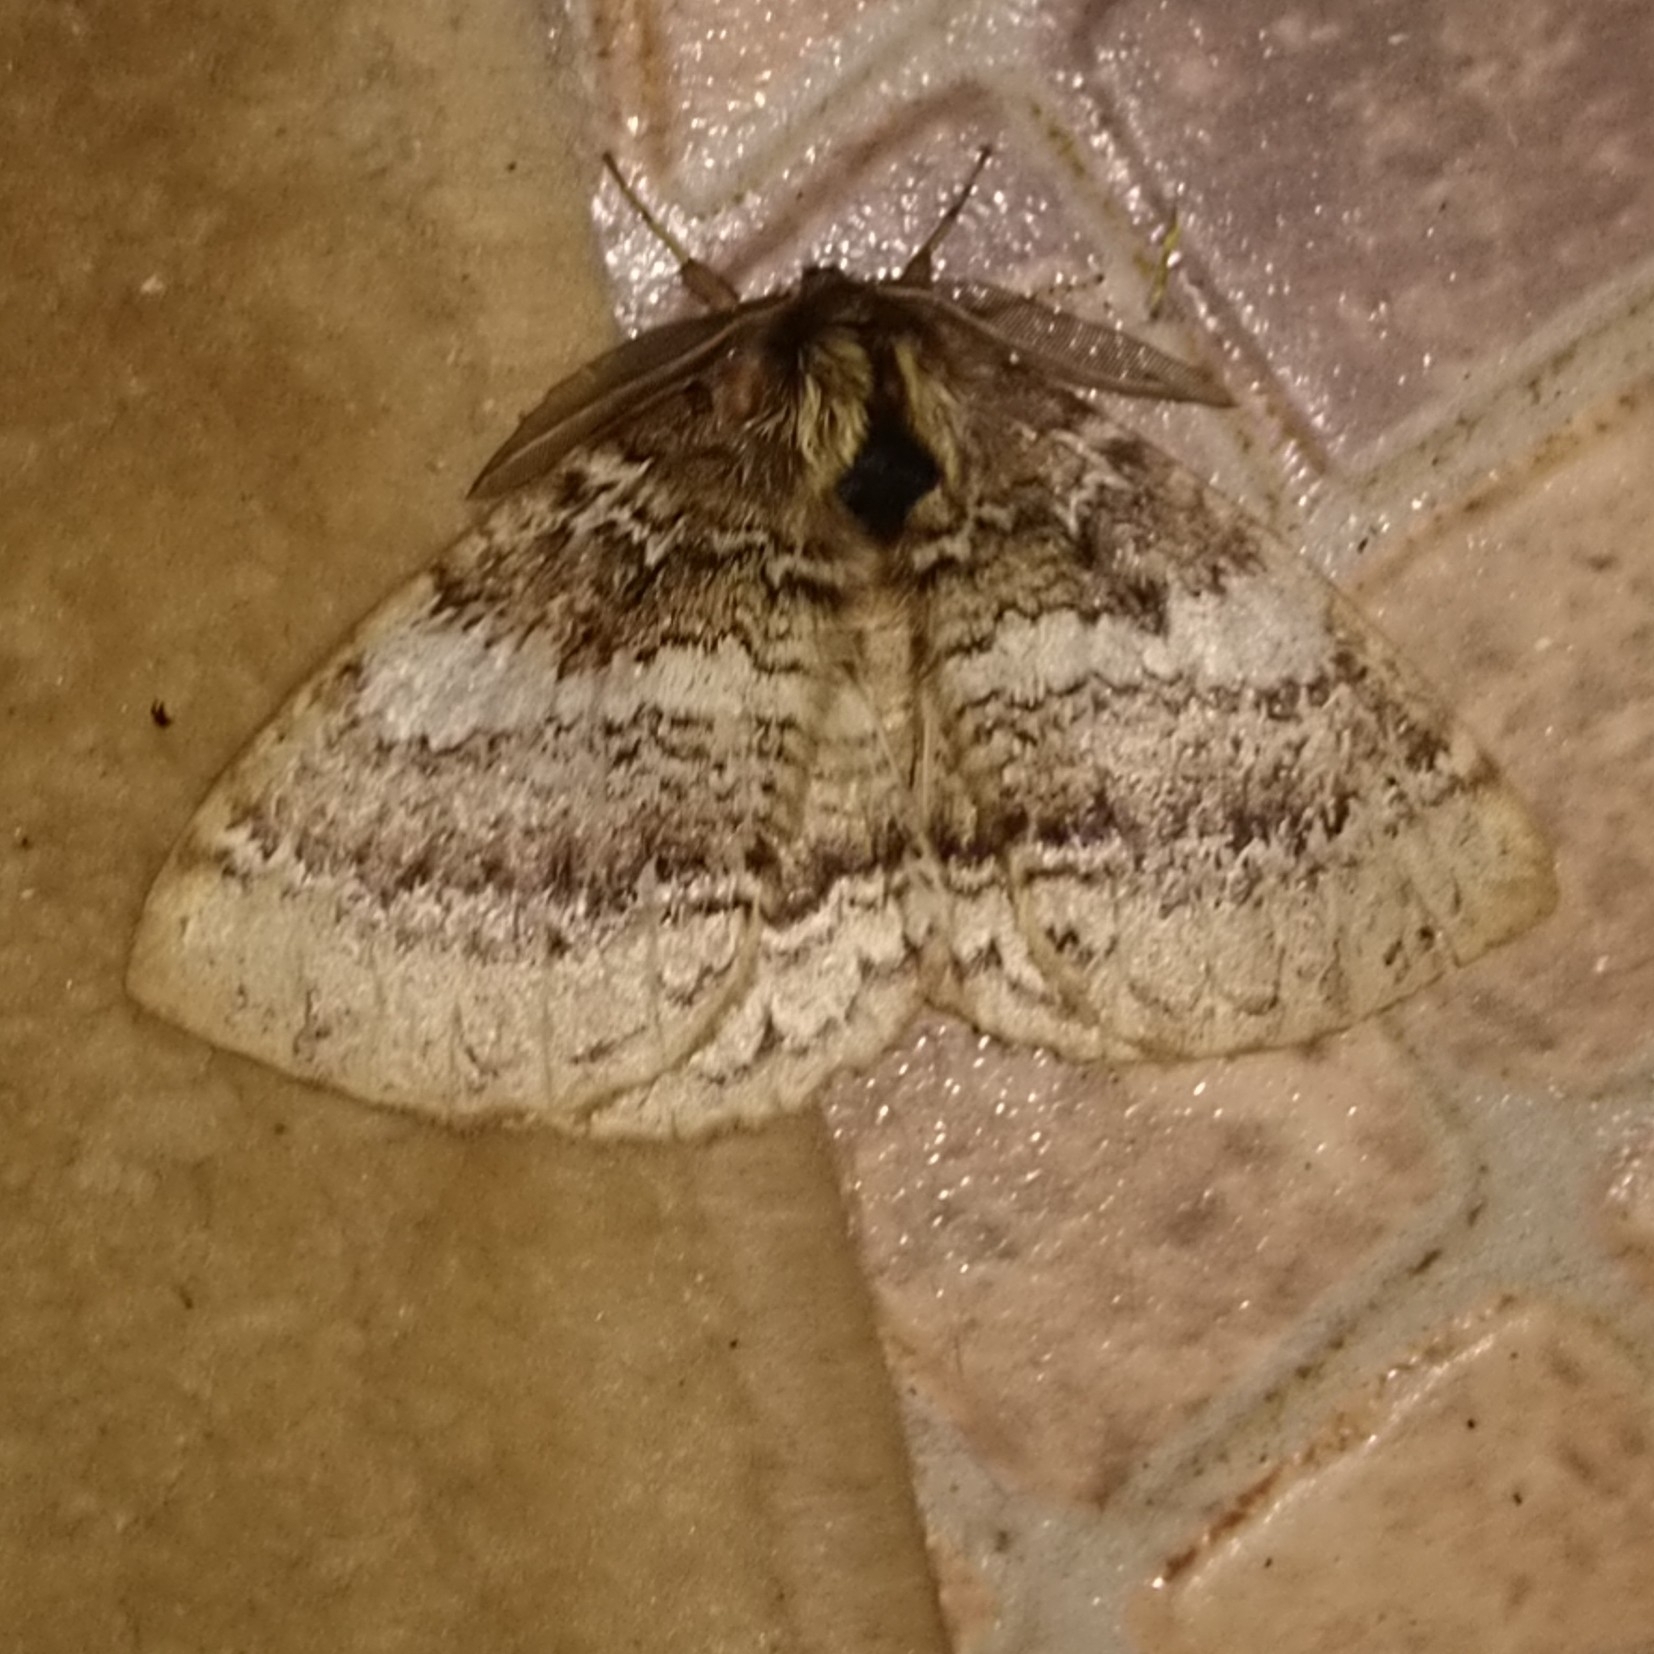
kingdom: Animalia
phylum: Arthropoda
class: Insecta
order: Lepidoptera
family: Eupterotidae
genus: Striphnopteryx
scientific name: Striphnopteryx edulis
